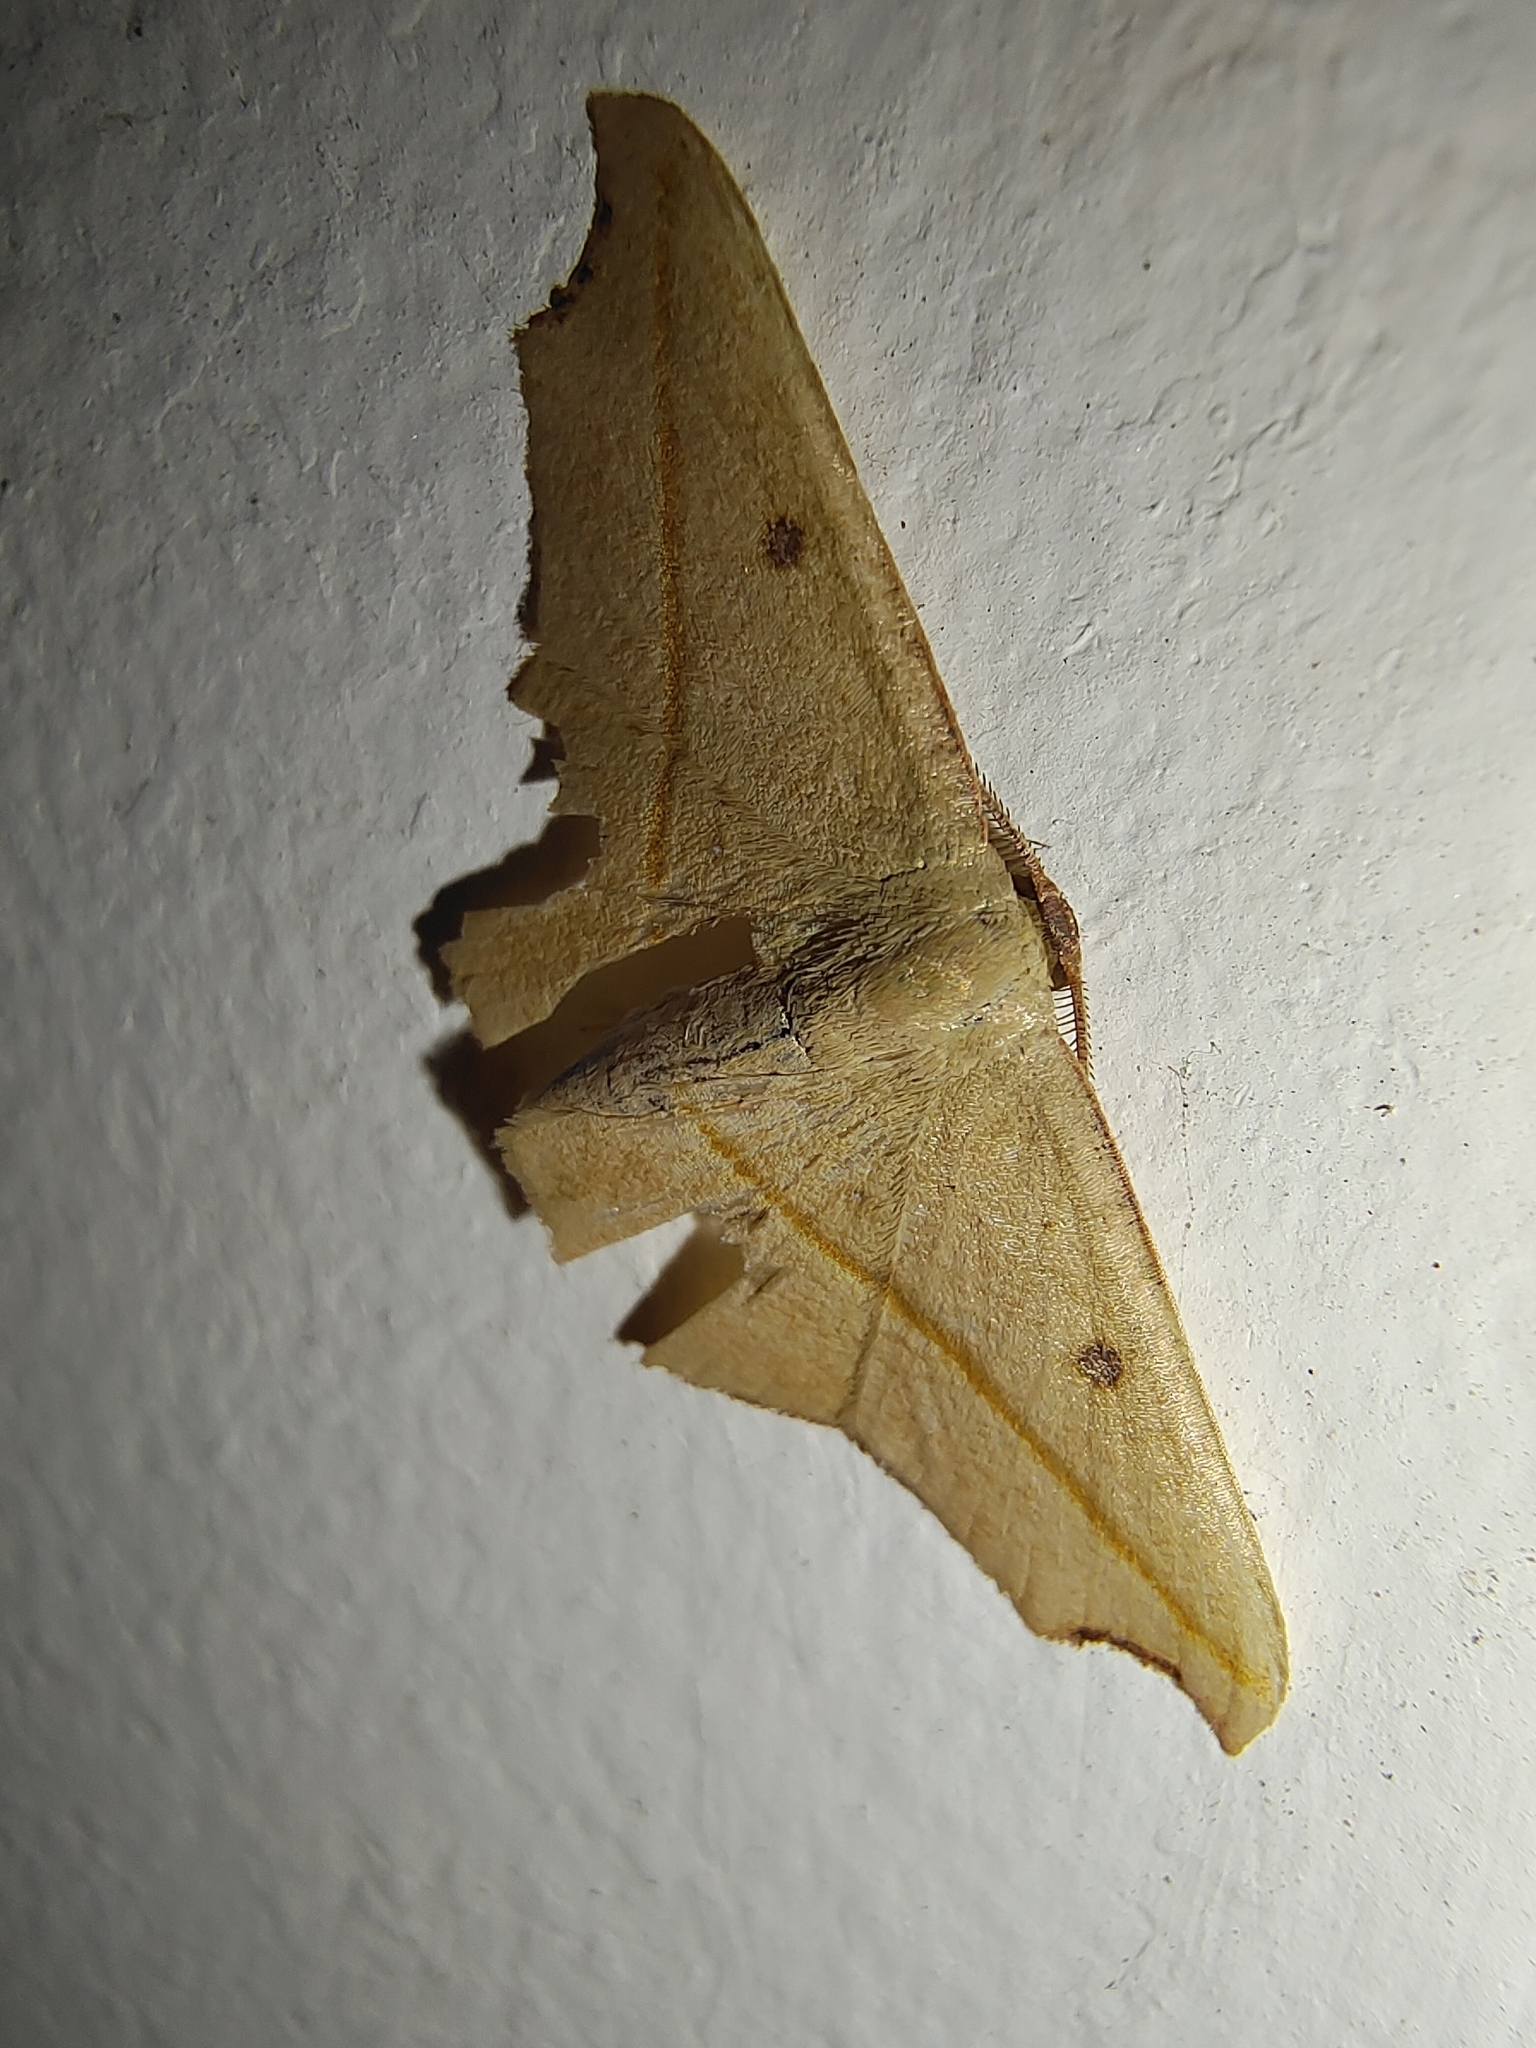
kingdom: Animalia
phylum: Arthropoda
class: Insecta
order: Lepidoptera
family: Geometridae
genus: Traminda
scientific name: Traminda aventiaria
